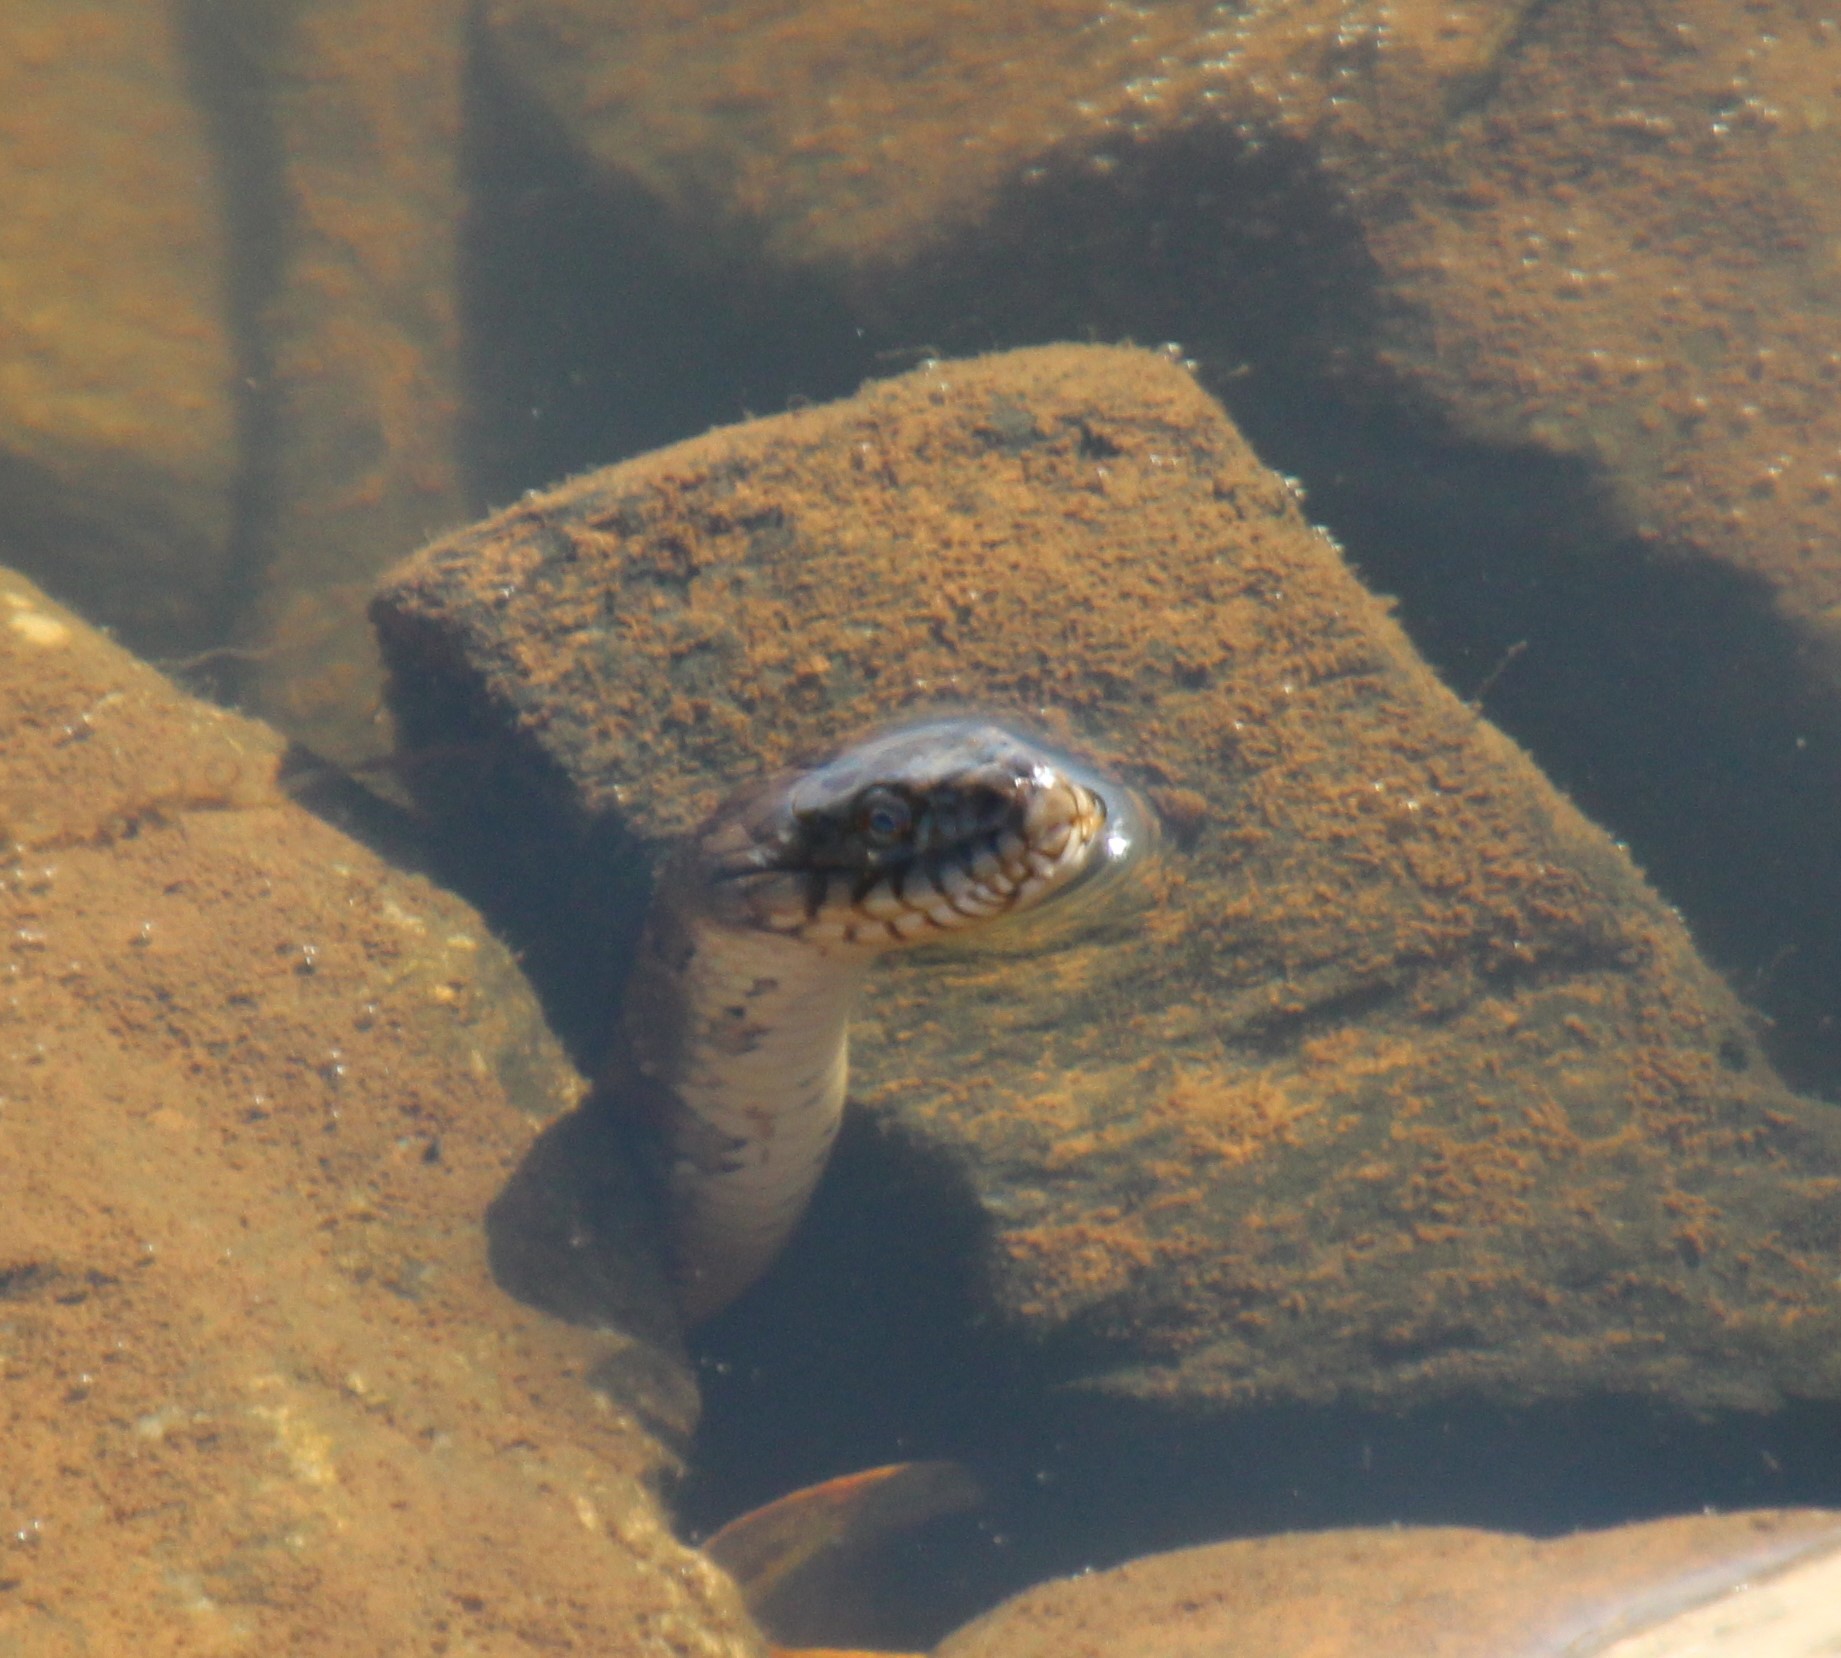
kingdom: Animalia
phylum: Chordata
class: Squamata
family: Colubridae
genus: Nerodia
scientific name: Nerodia sipedon
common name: Northern water snake
